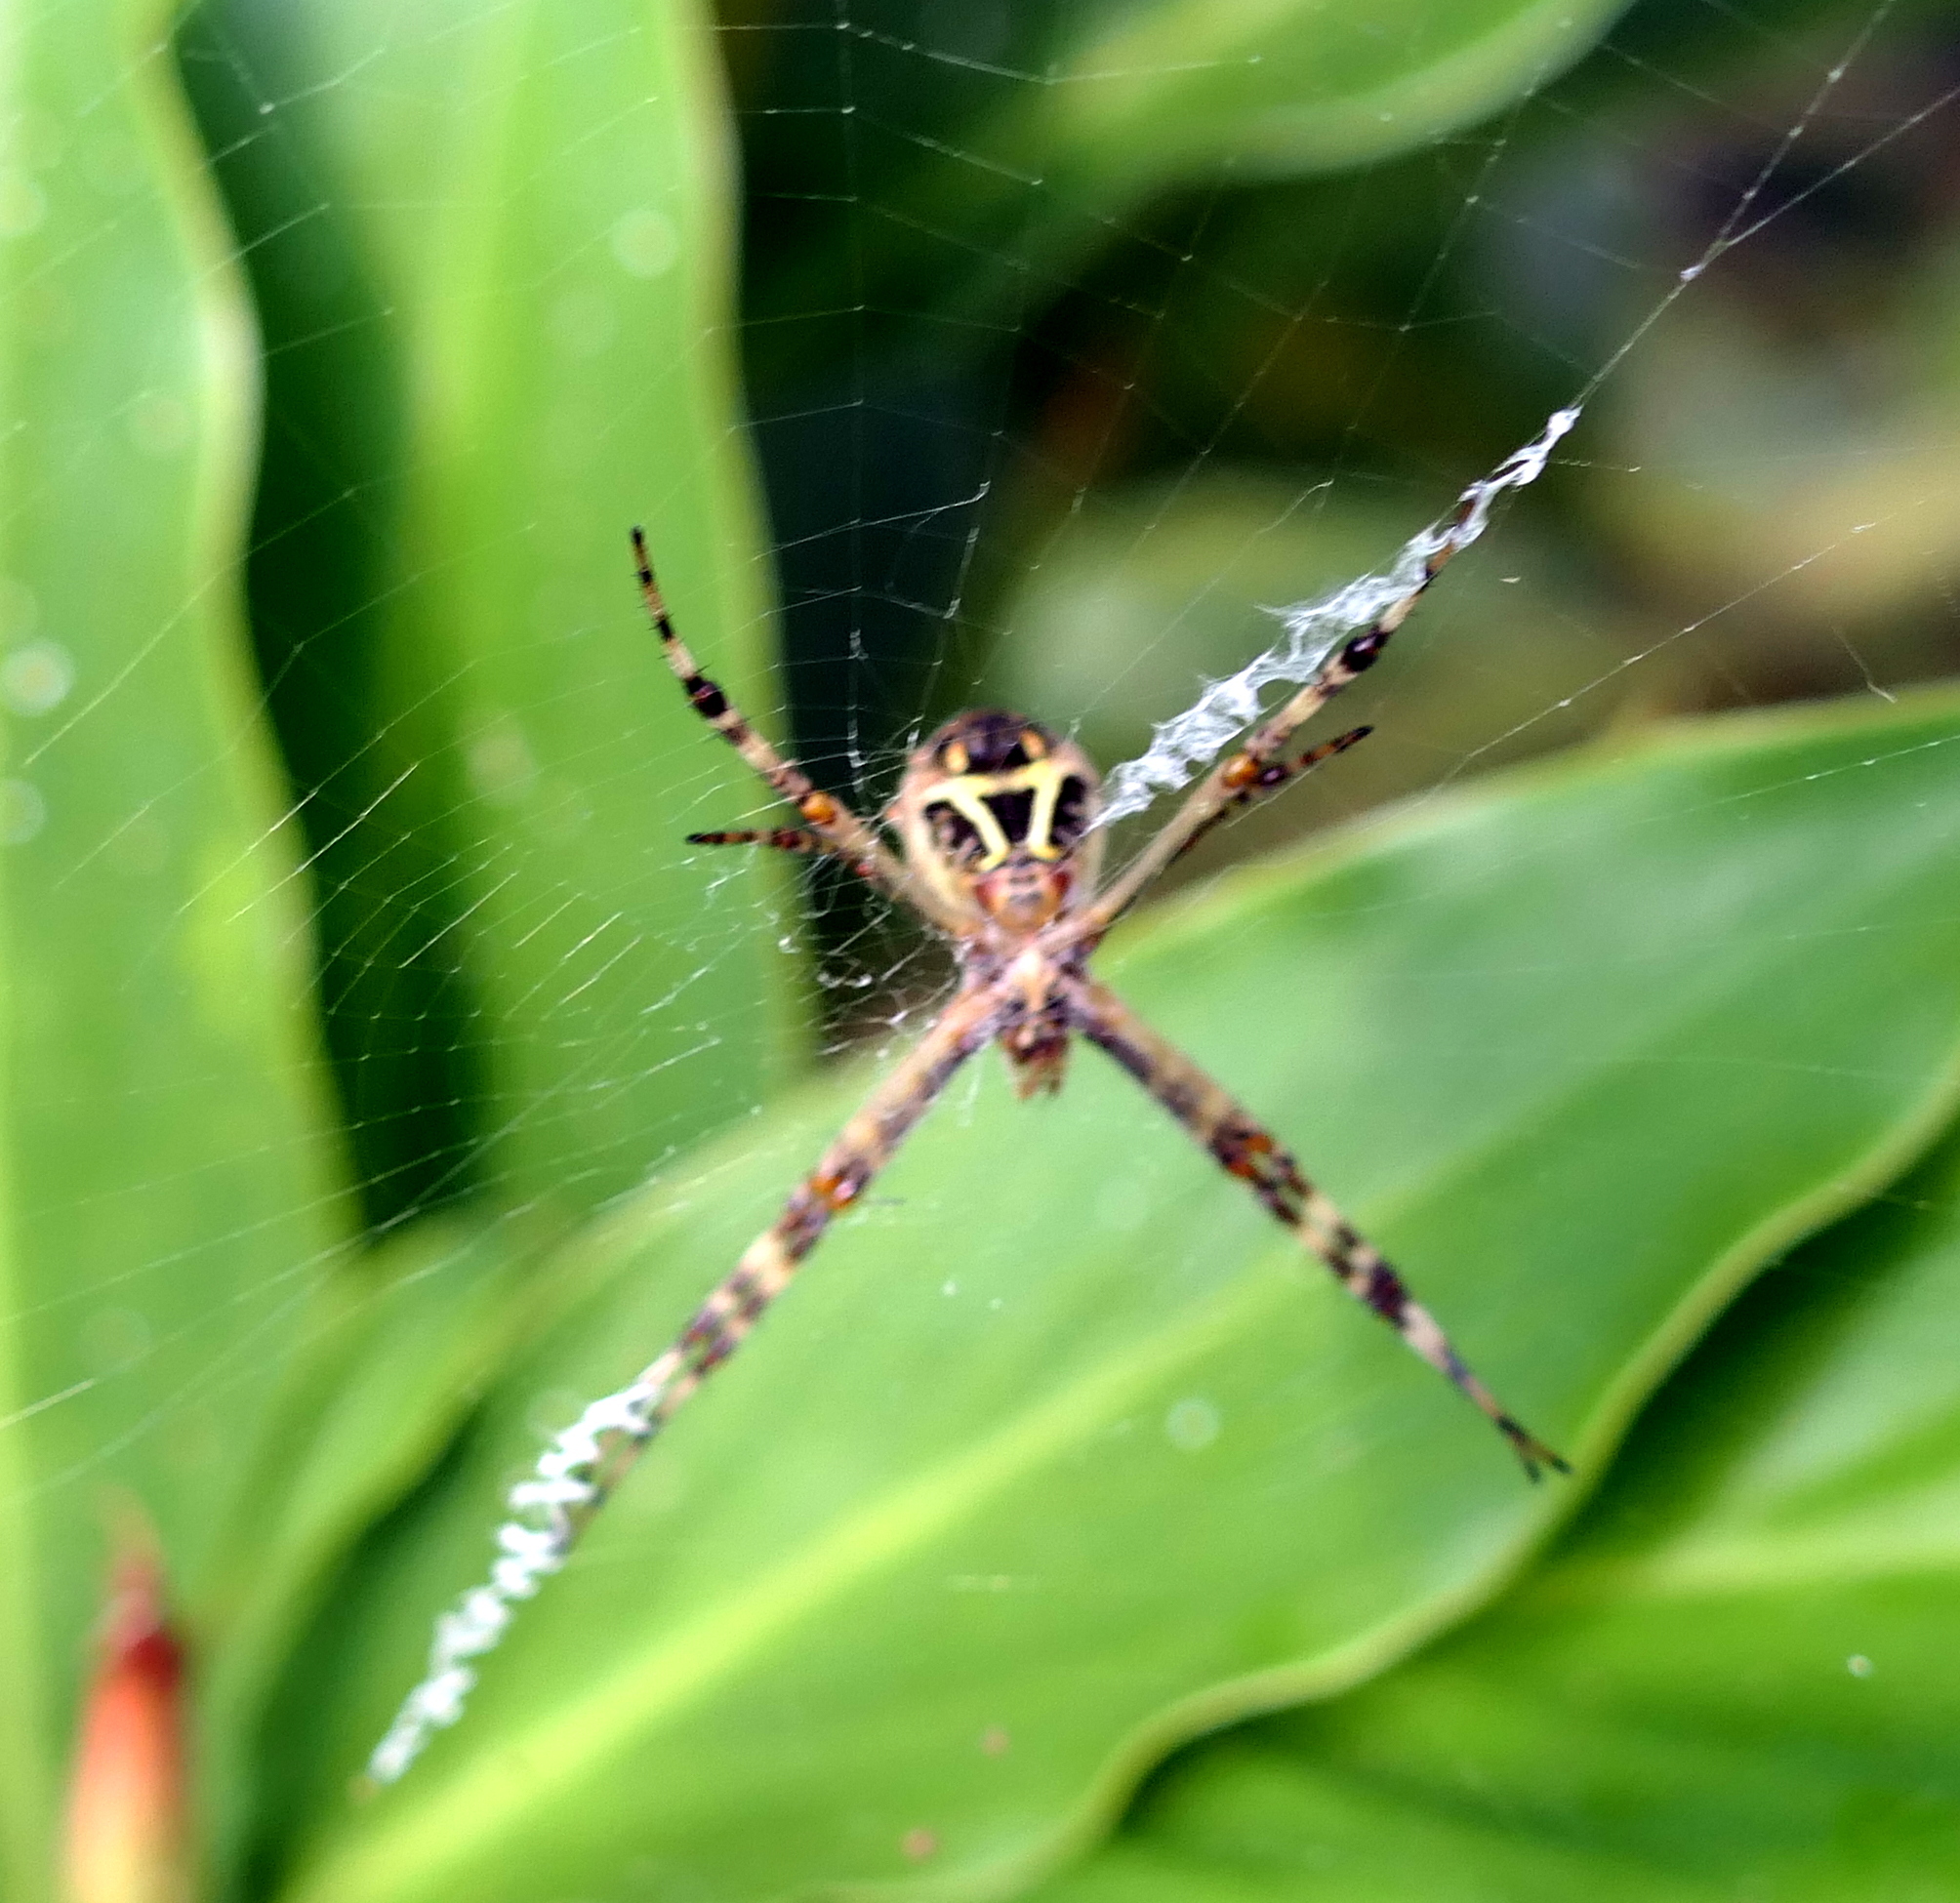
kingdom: Animalia
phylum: Arthropoda
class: Arachnida
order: Araneae
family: Araneidae
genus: Argiope
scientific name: Argiope argentata
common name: Orb weavers
